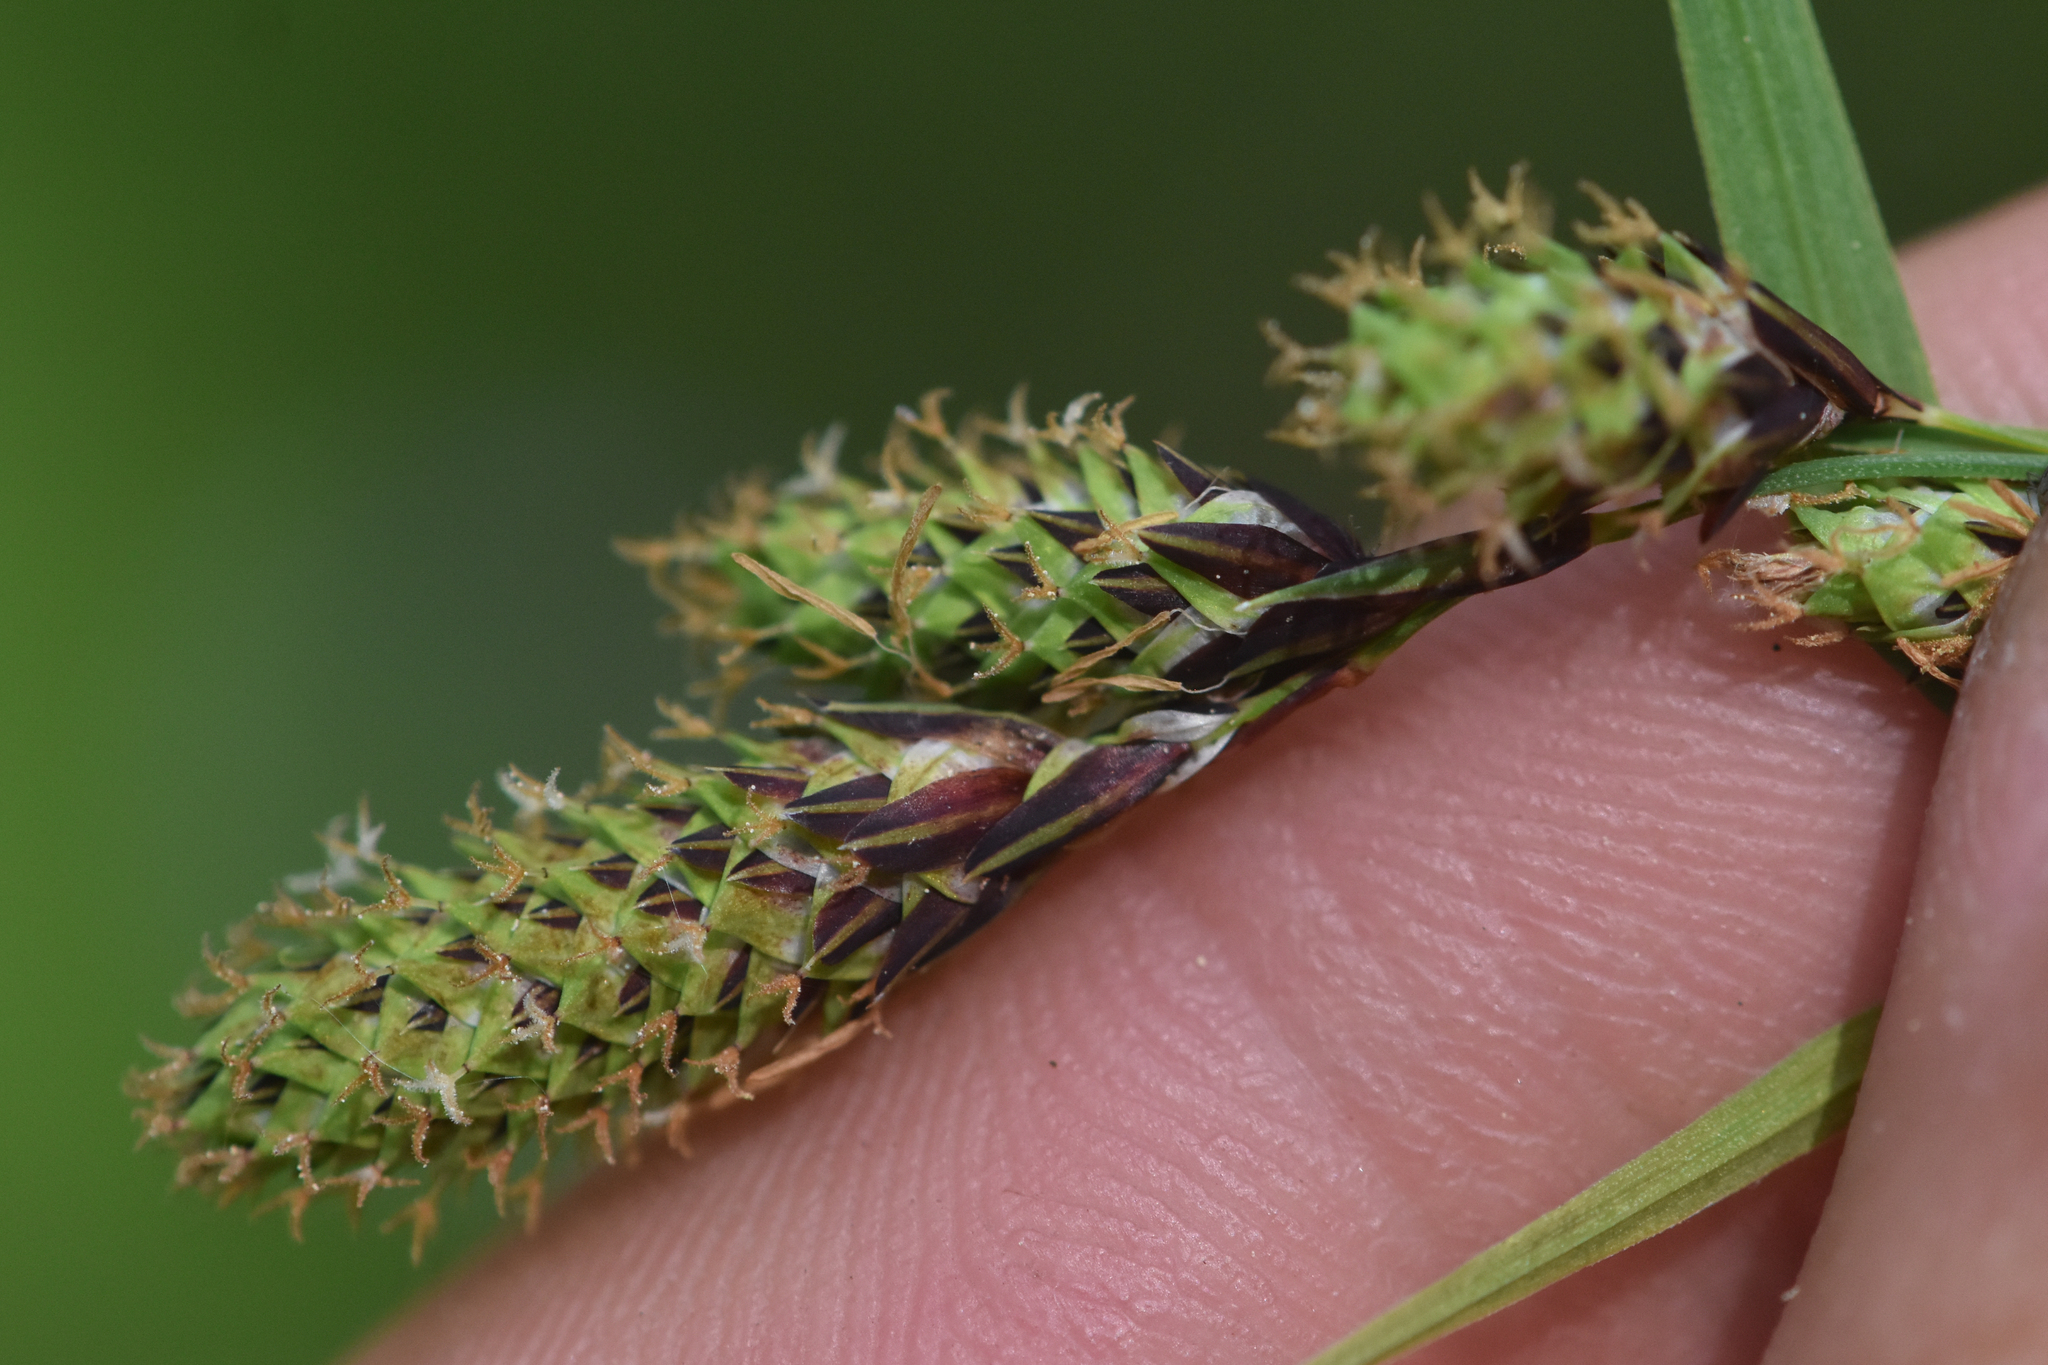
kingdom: Plantae
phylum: Tracheophyta
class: Liliopsida
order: Poales
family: Cyperaceae
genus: Carex
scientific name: Carex mertensii
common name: Mertens' sedge
